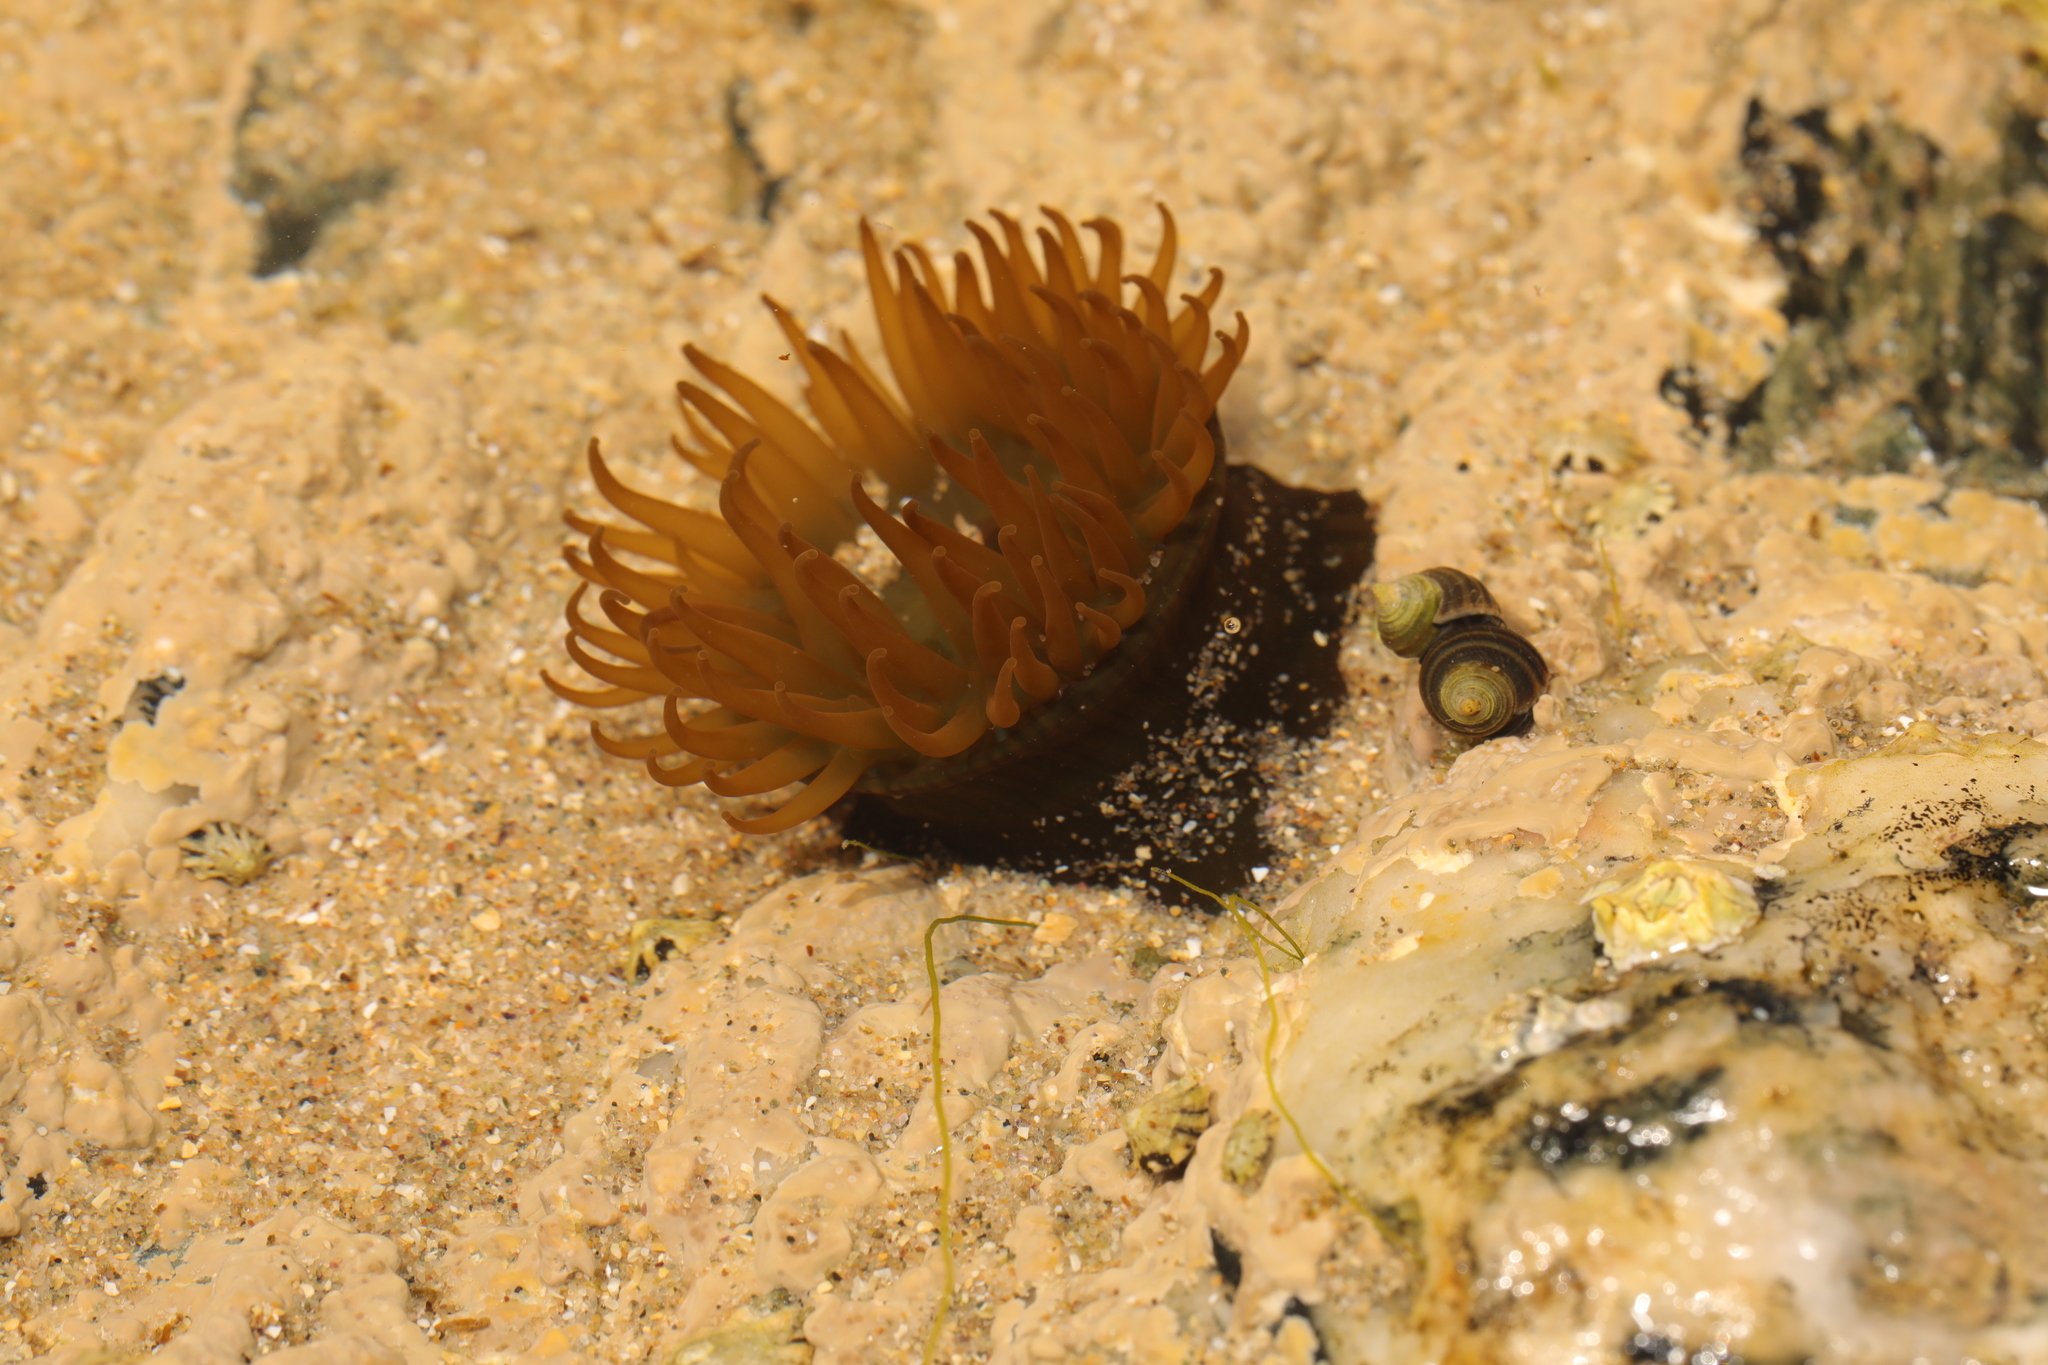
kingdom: Animalia
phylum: Cnidaria
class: Anthozoa
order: Actiniaria
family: Actiniidae
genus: Actinia
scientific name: Actinia equina
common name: Beadlet anemone
